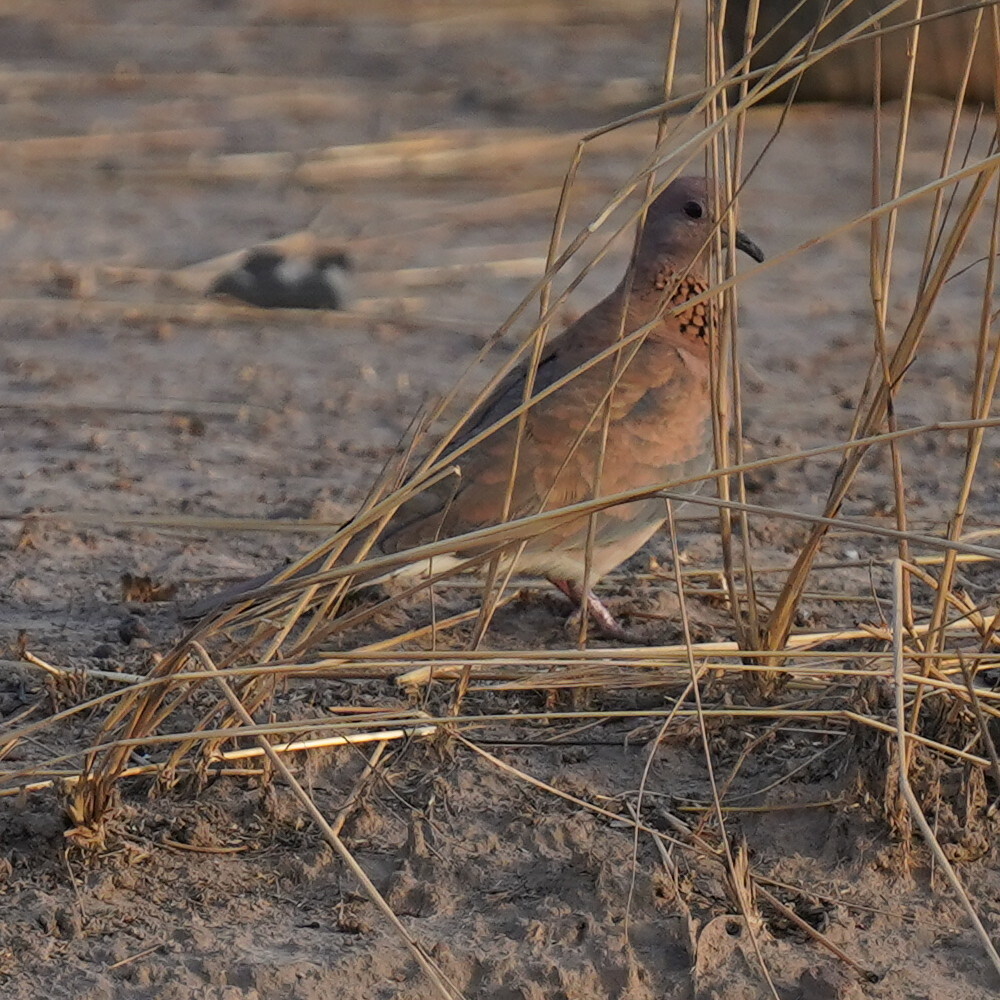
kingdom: Animalia
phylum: Chordata
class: Aves
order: Columbiformes
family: Columbidae
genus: Spilopelia
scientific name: Spilopelia senegalensis
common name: Laughing dove
